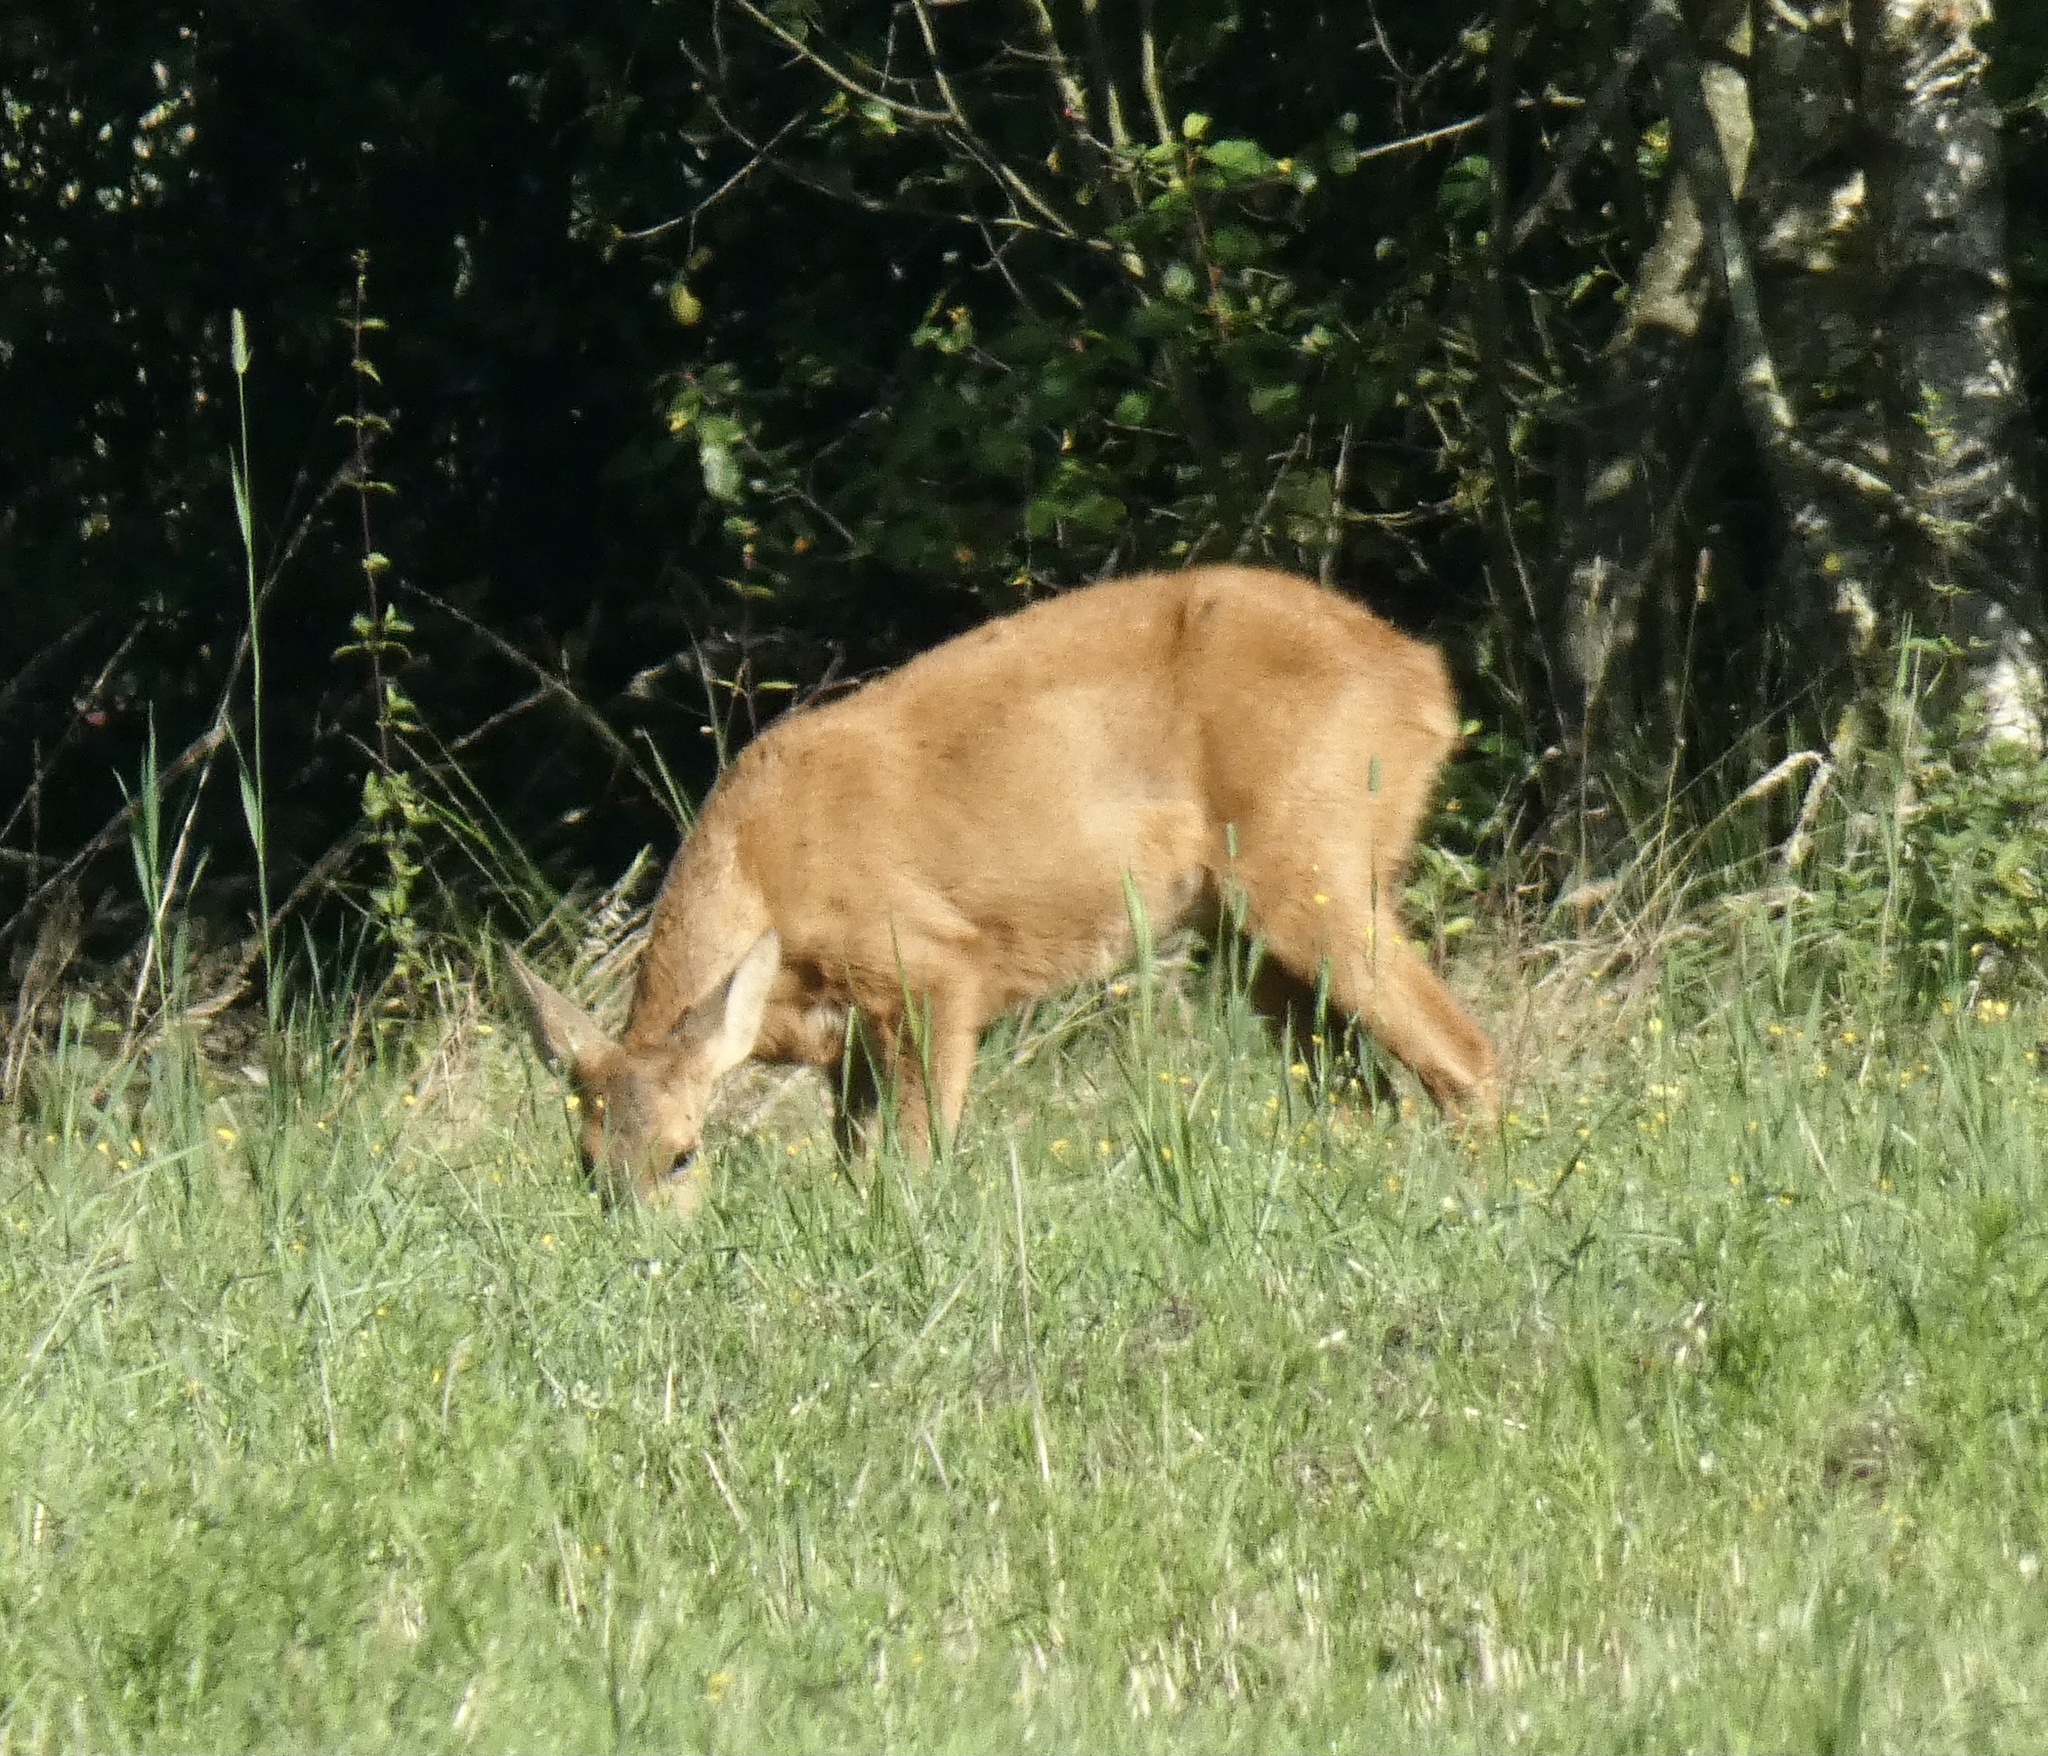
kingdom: Animalia
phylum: Chordata
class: Mammalia
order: Artiodactyla
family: Cervidae
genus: Capreolus
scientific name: Capreolus capreolus
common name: Western roe deer
